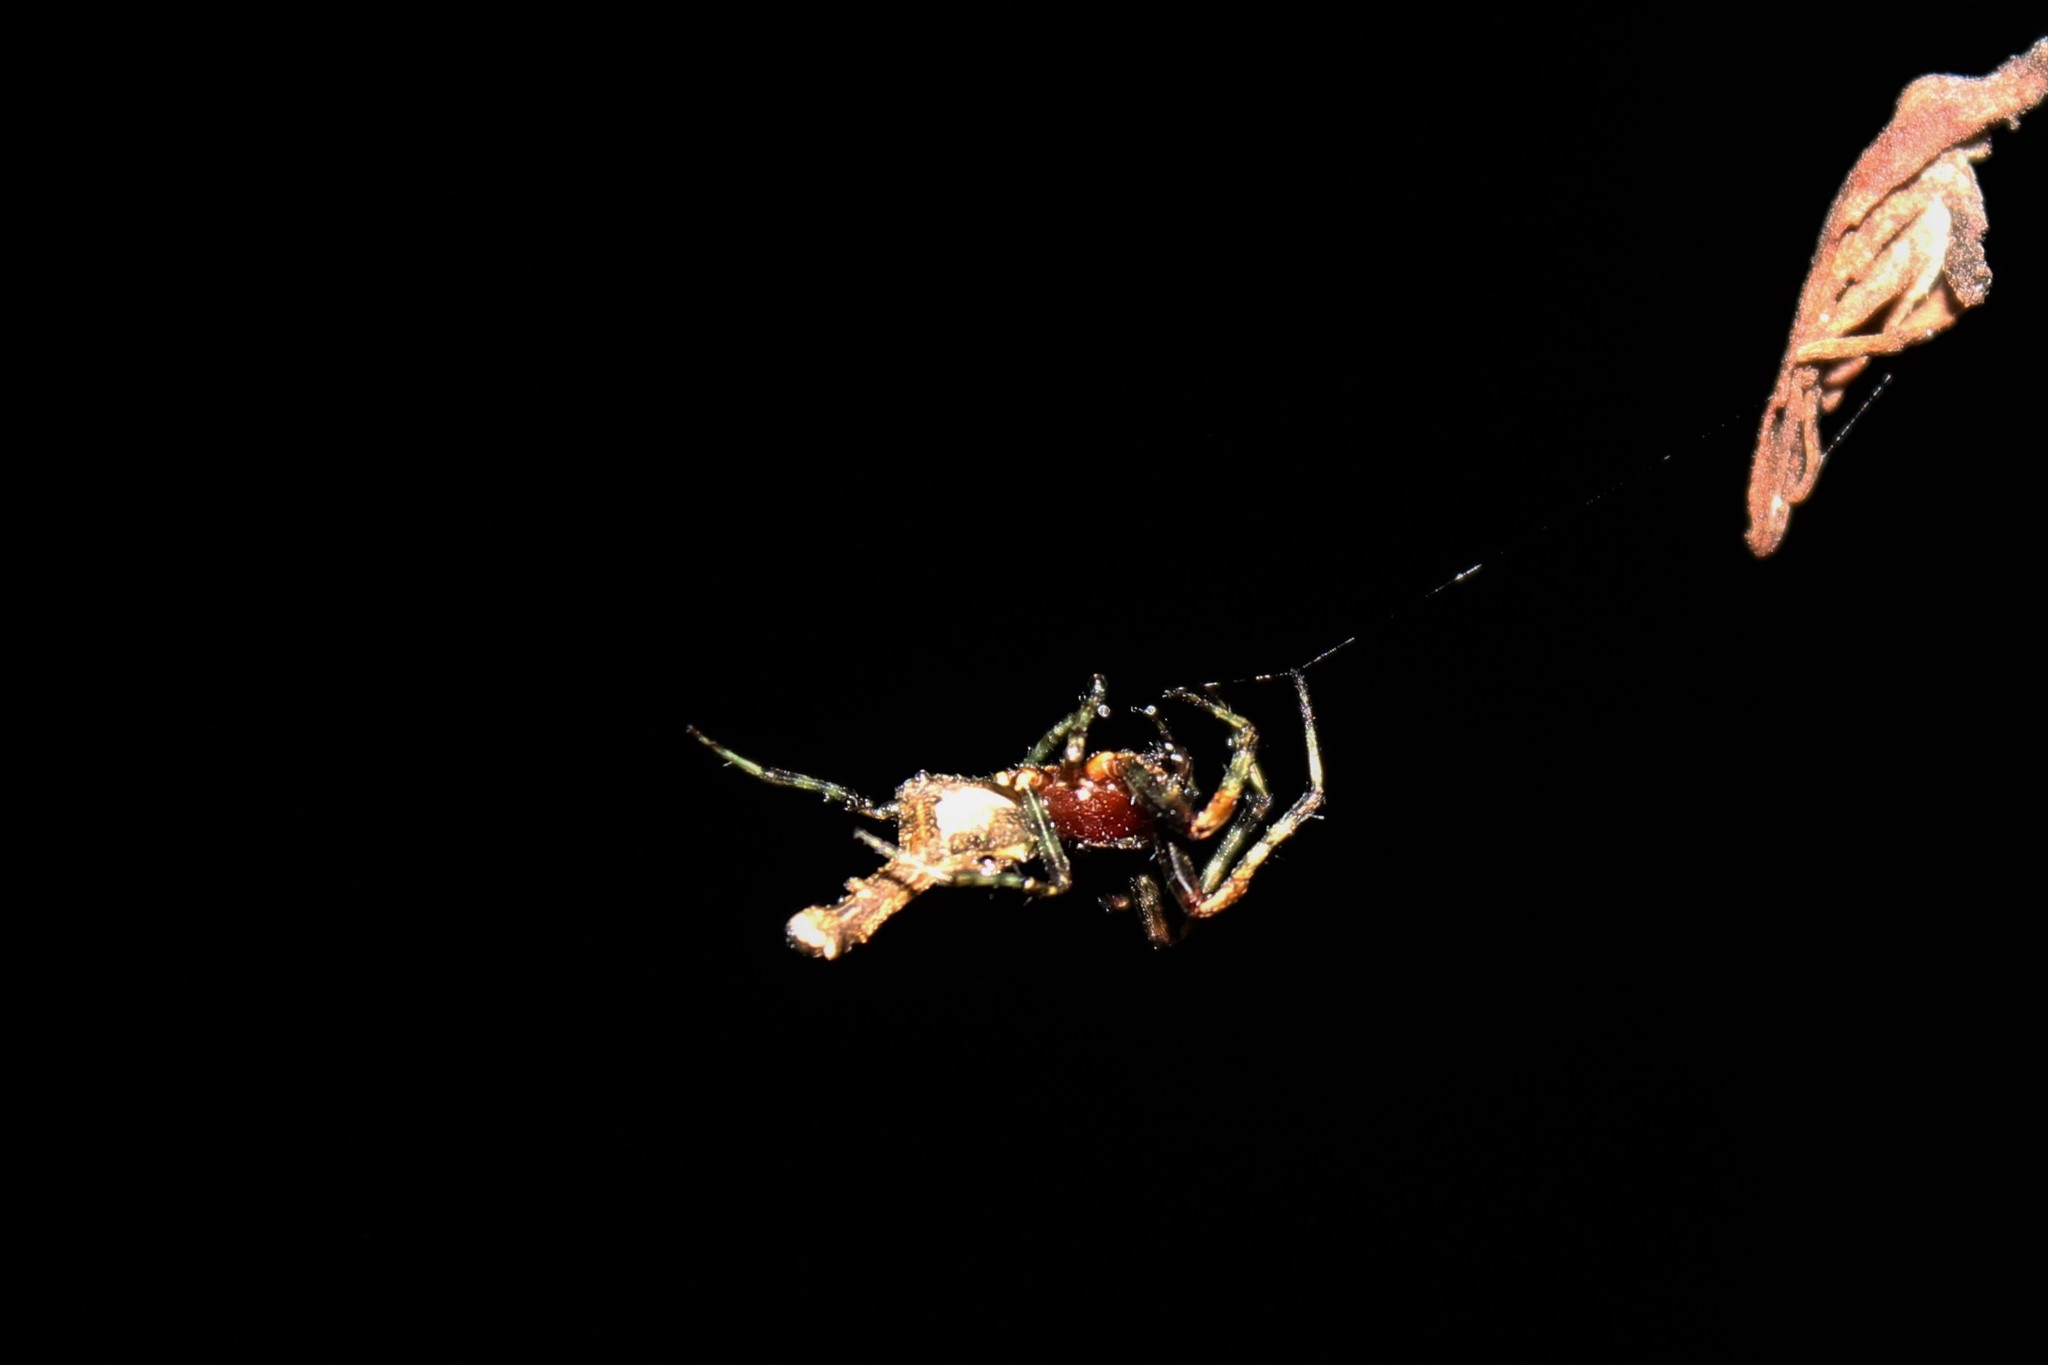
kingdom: Animalia
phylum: Arthropoda
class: Arachnida
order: Araneae
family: Araneidae
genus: Paraverrucosa
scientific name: Paraverrucosa neglecta
